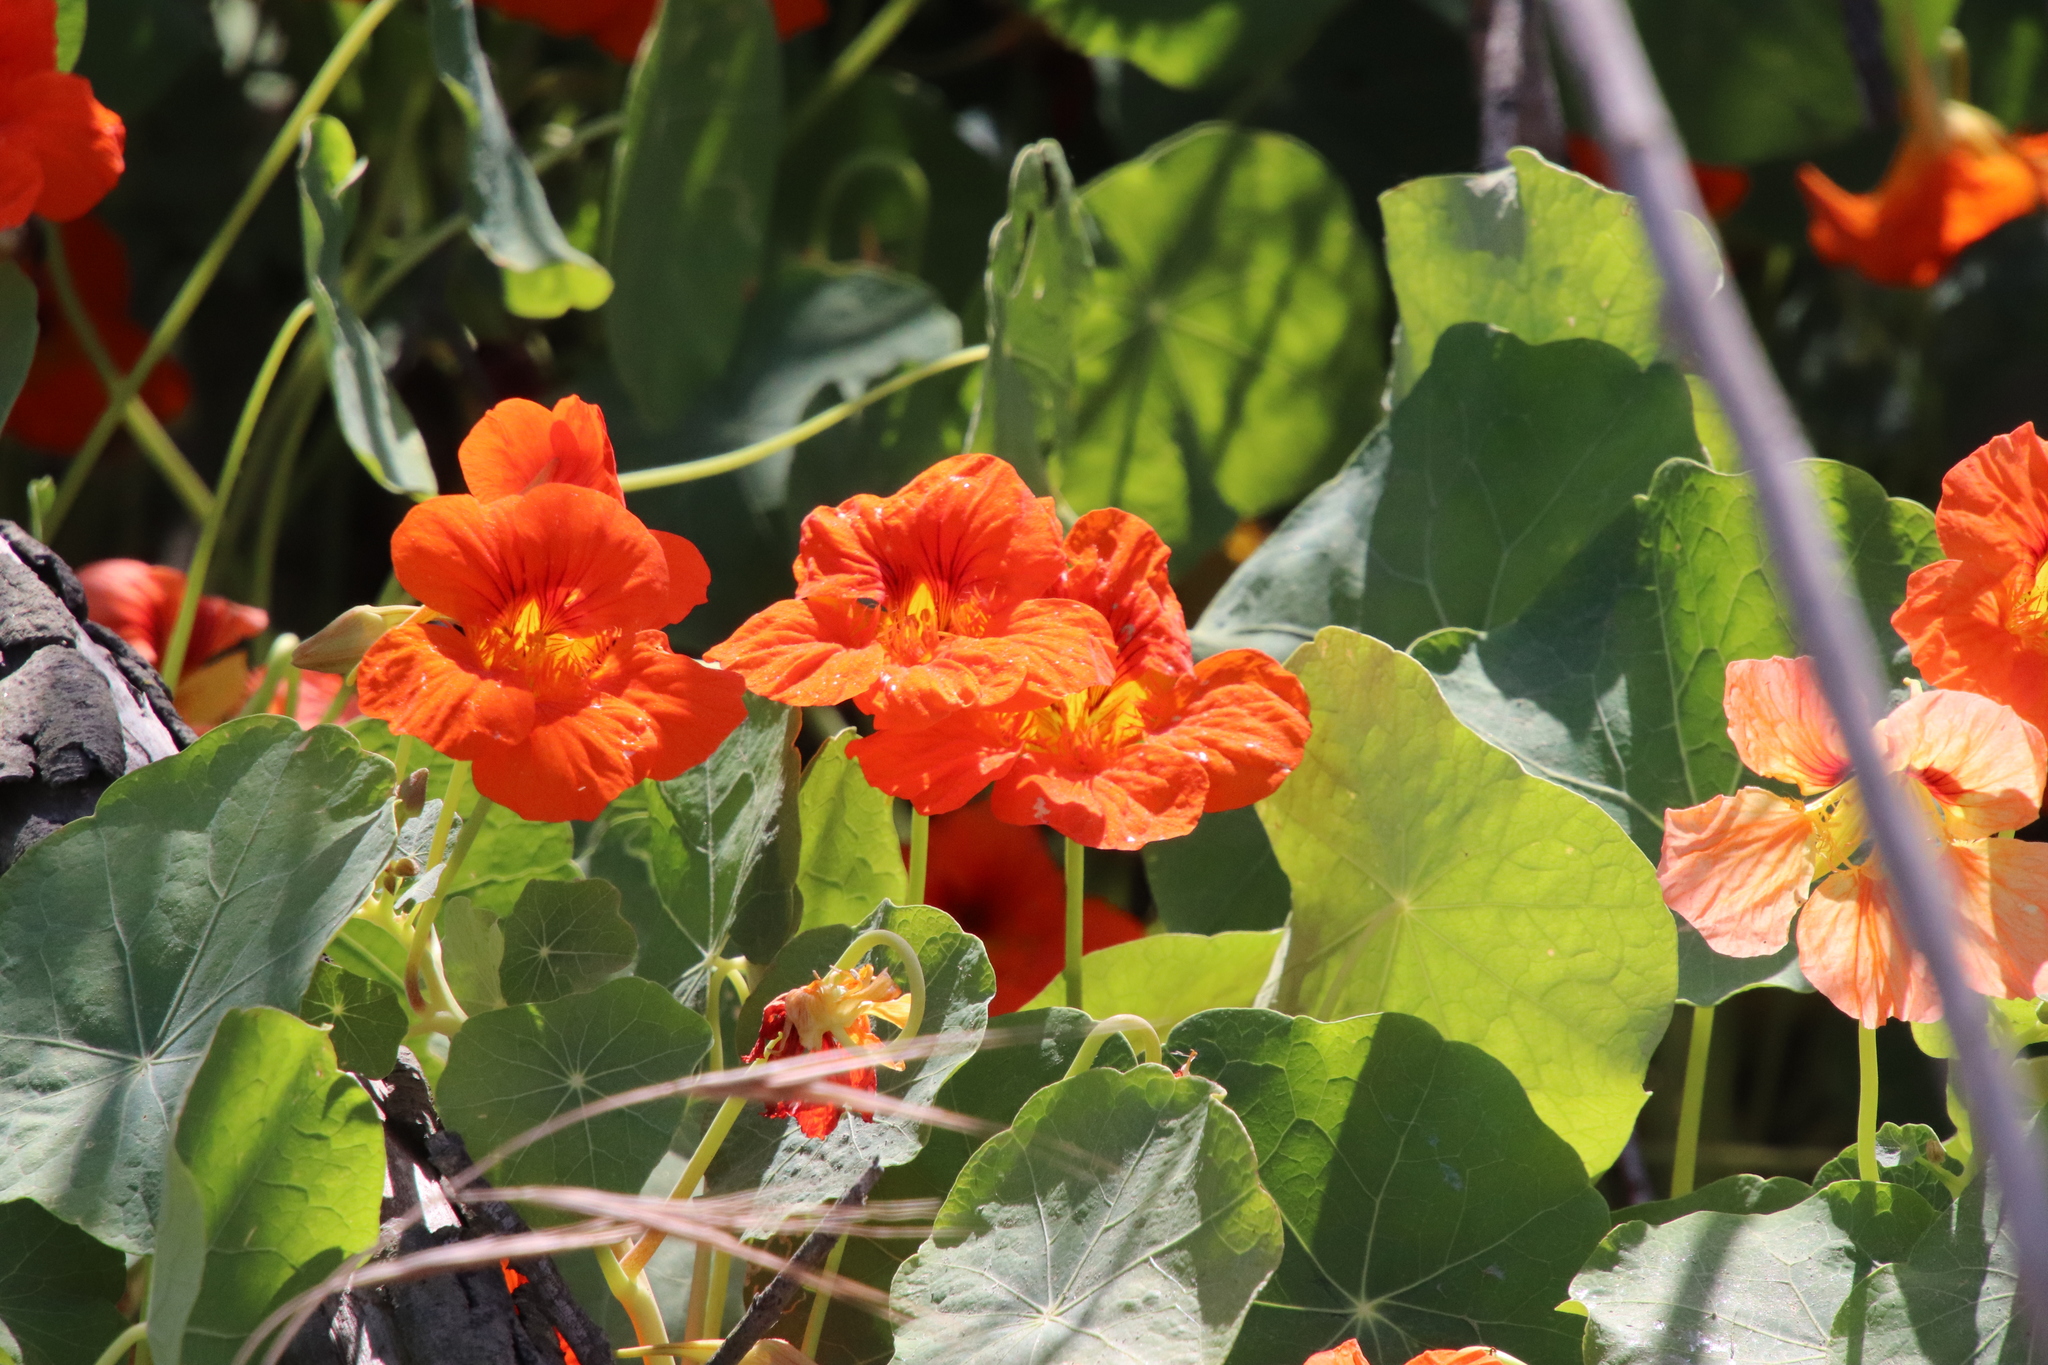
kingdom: Plantae
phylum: Tracheophyta
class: Magnoliopsida
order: Brassicales
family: Tropaeolaceae
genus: Tropaeolum
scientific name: Tropaeolum majus
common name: Nasturtium
